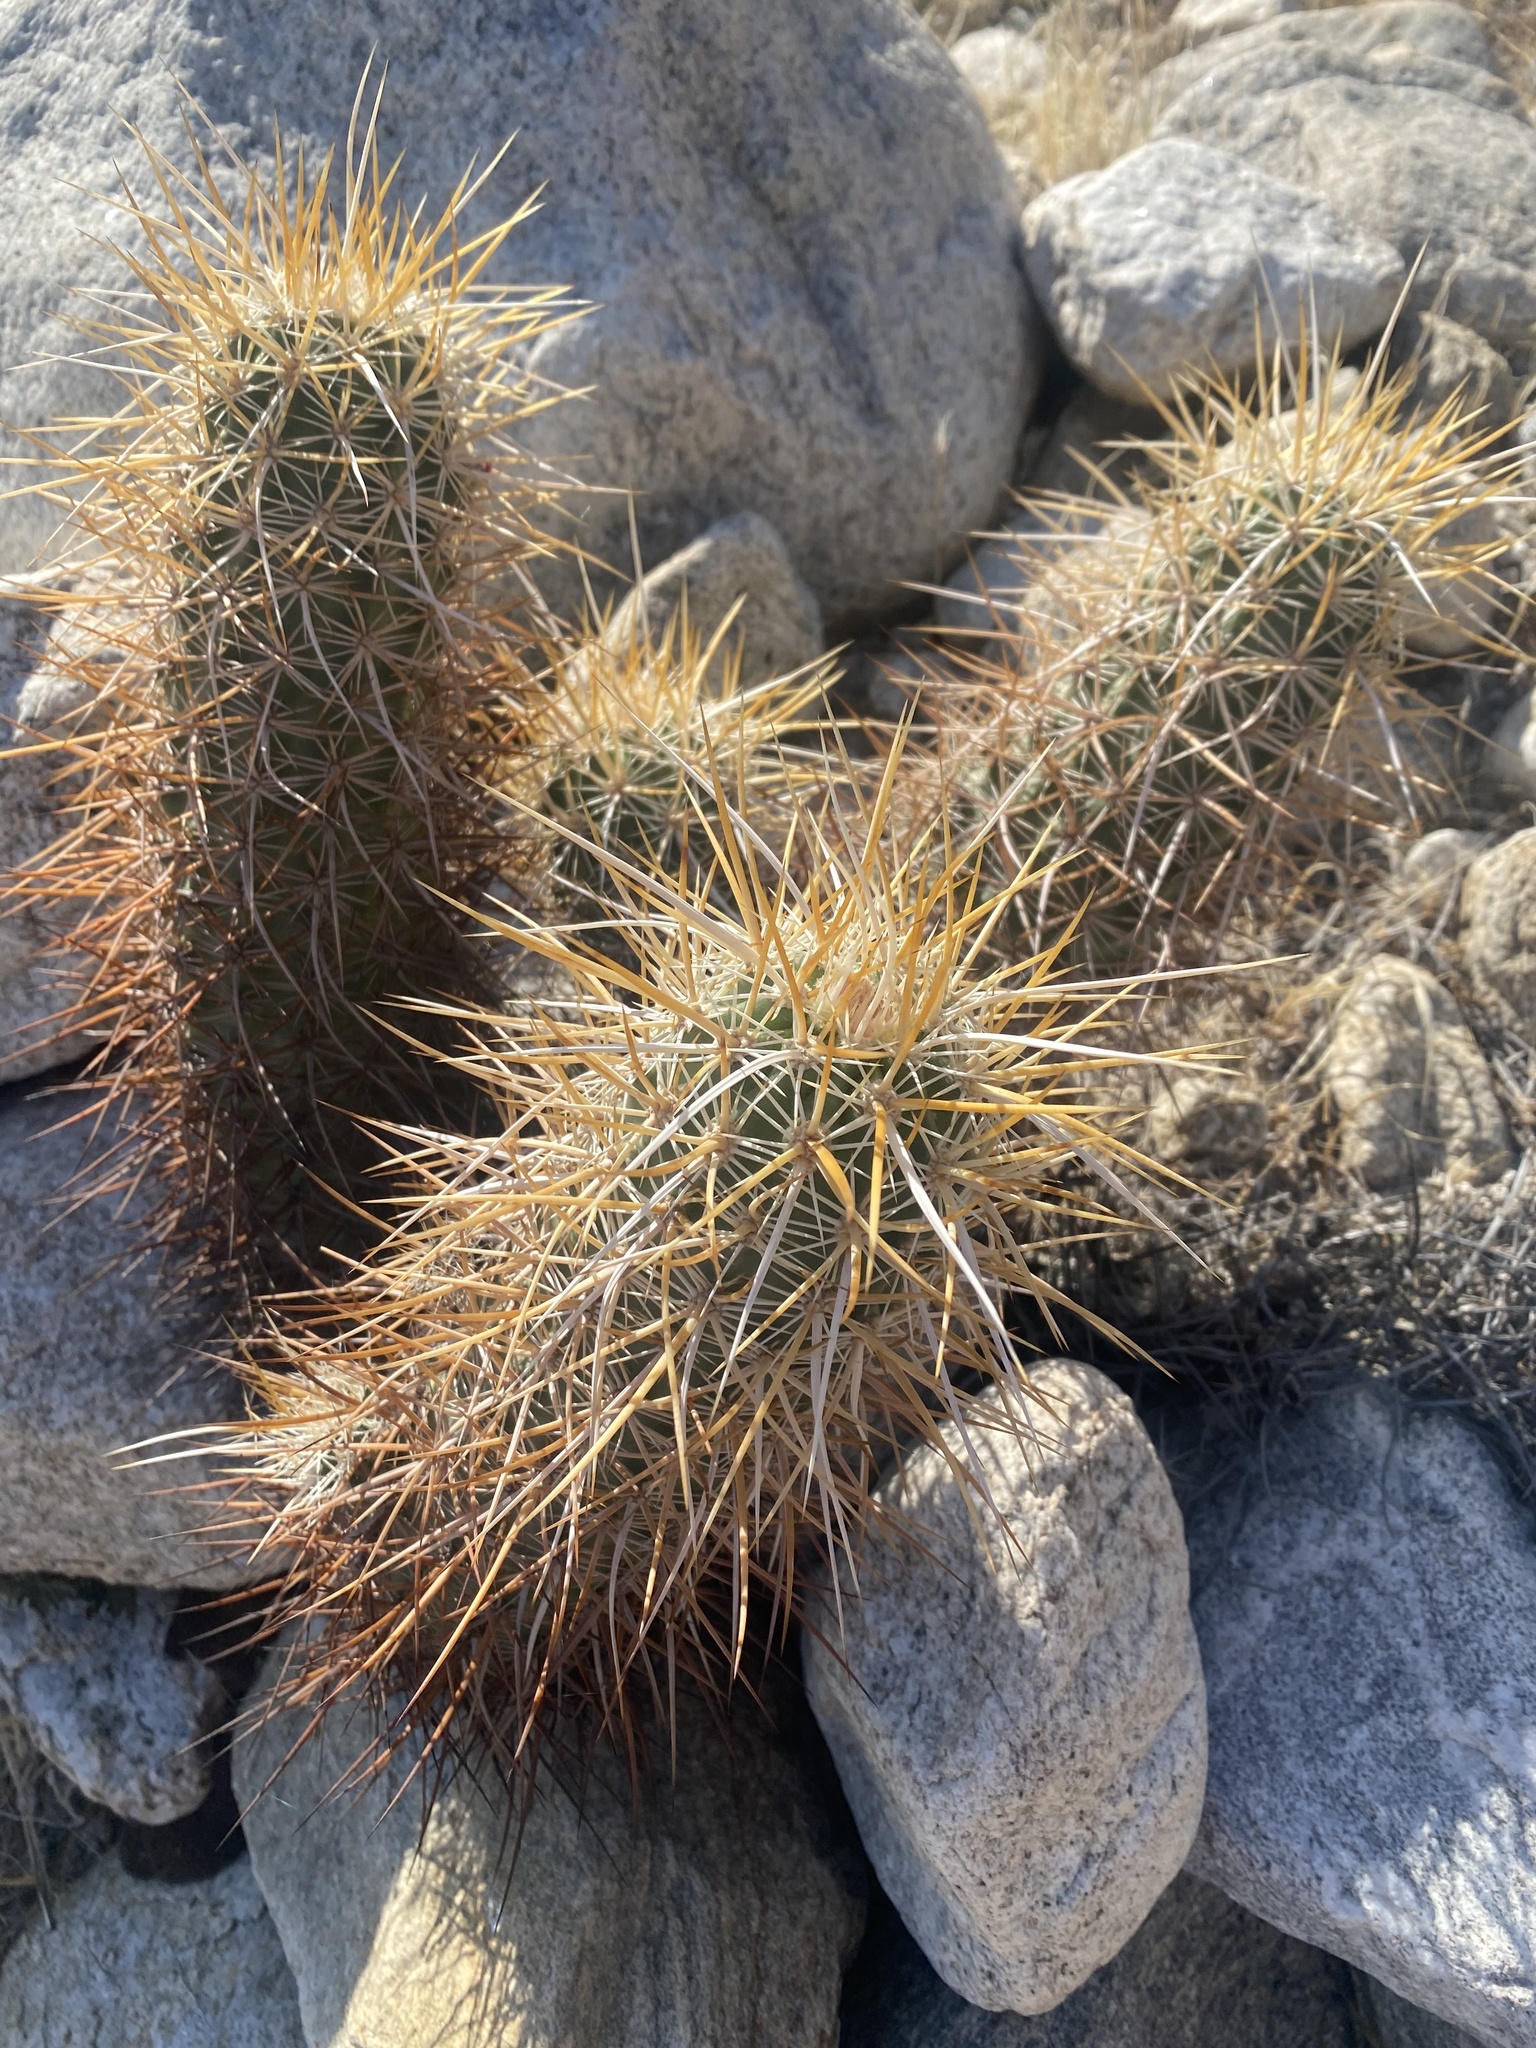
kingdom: Plantae
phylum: Tracheophyta
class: Magnoliopsida
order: Caryophyllales
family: Cactaceae
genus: Echinocereus
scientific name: Echinocereus engelmannii
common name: Engelmann's hedgehog cactus
